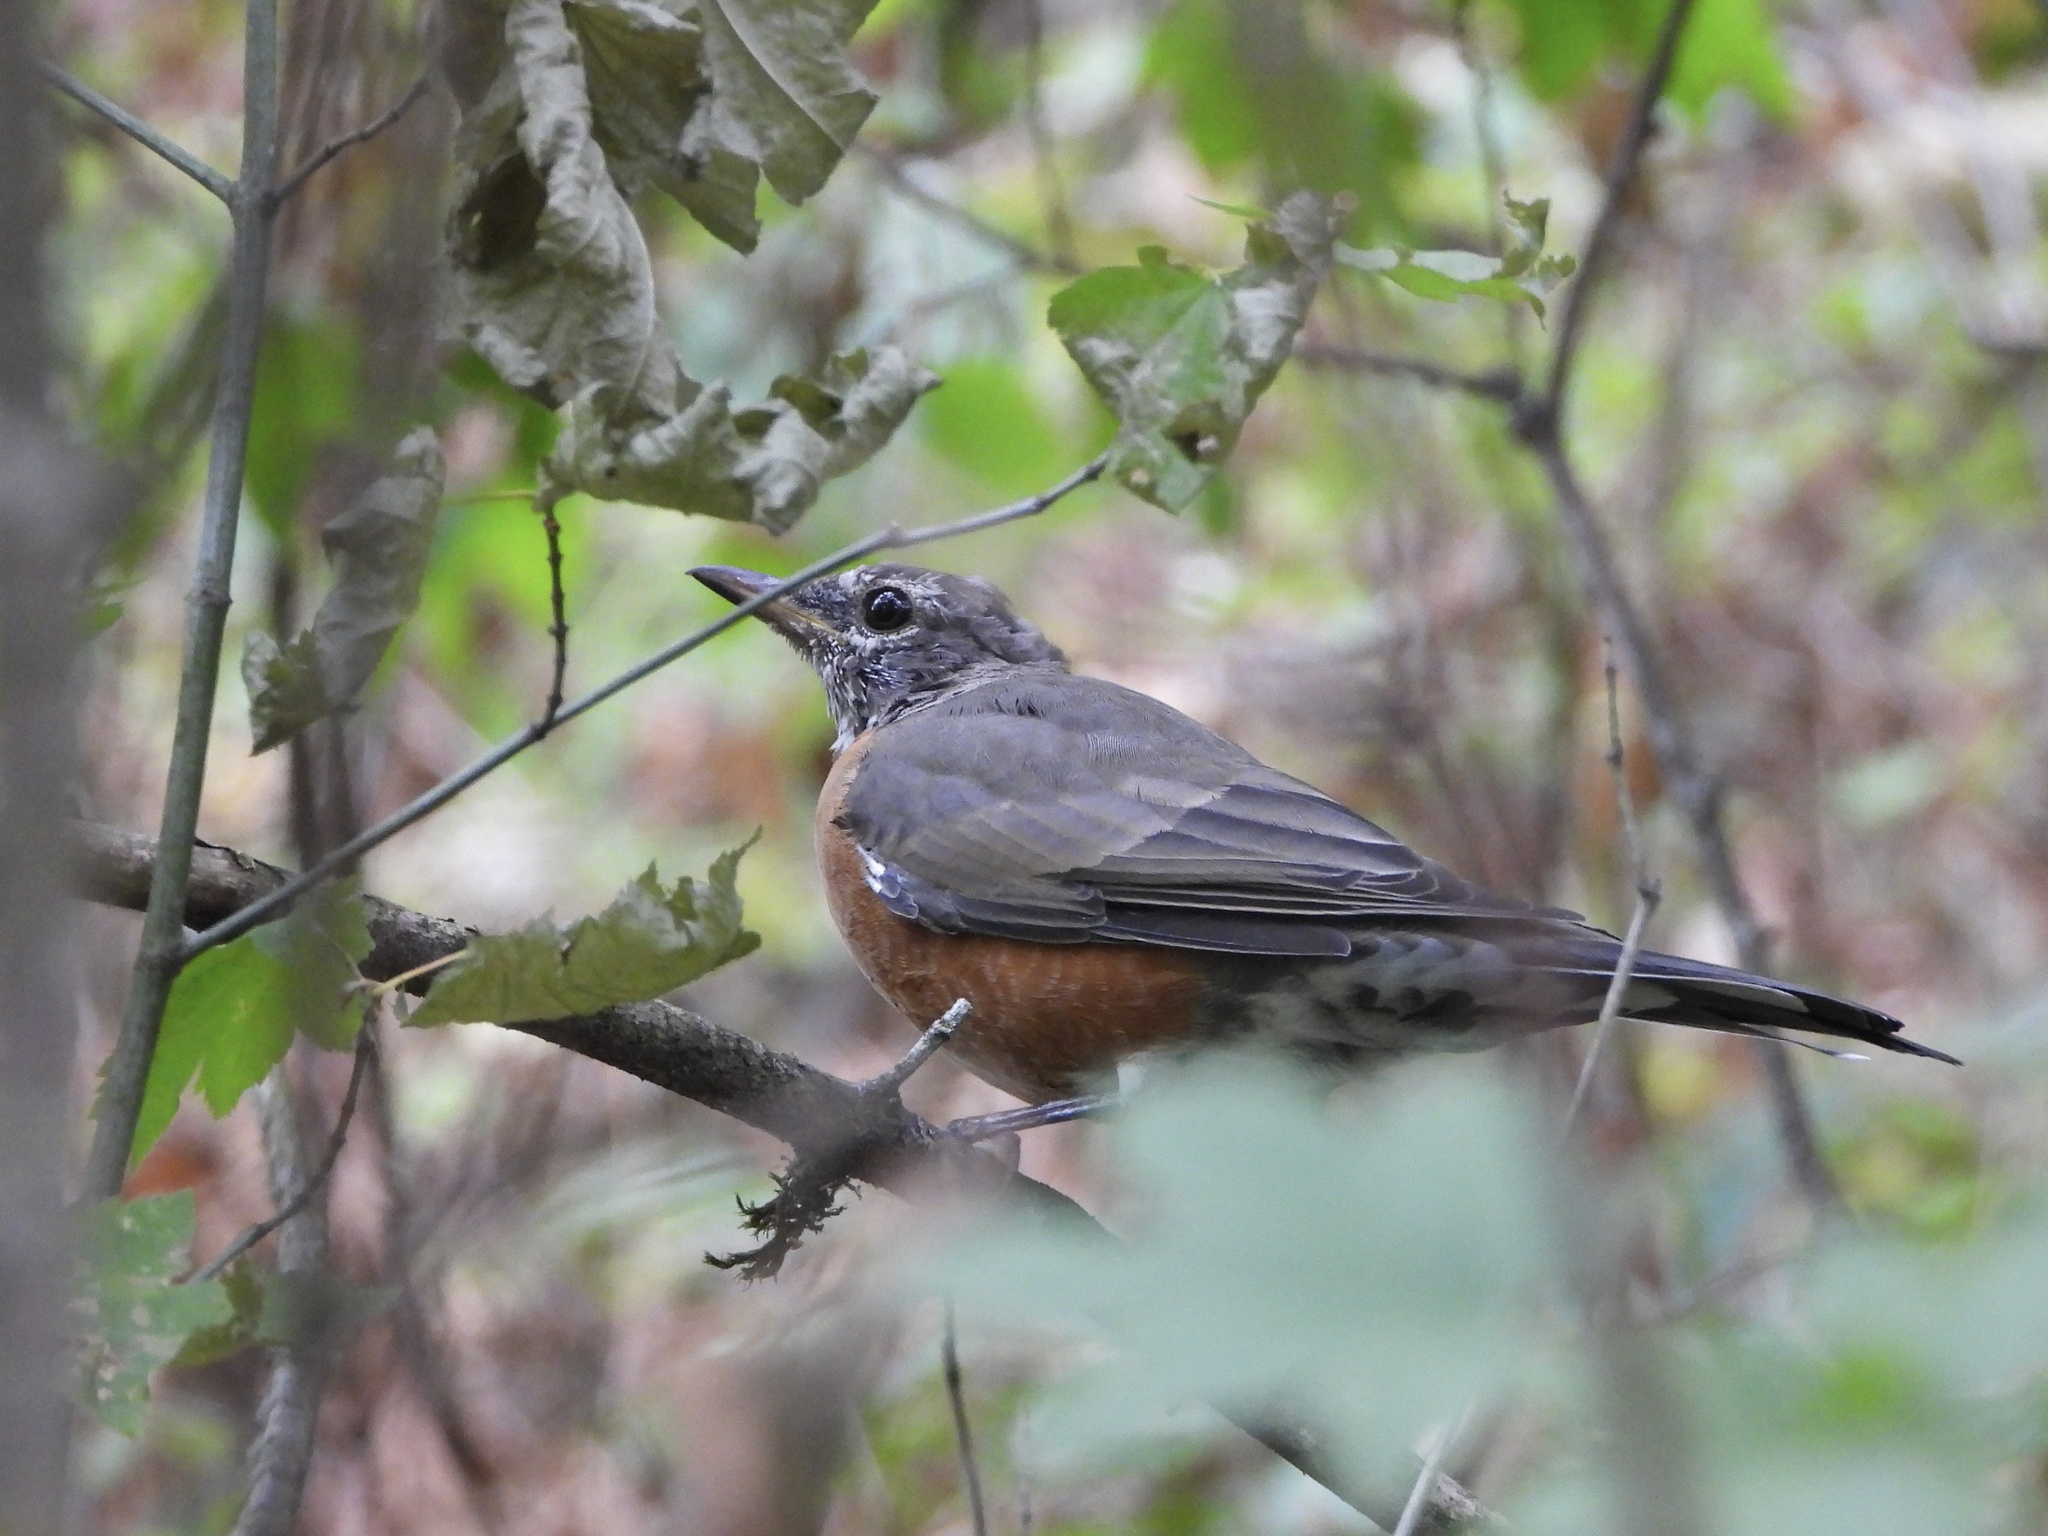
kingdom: Animalia
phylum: Chordata
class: Aves
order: Passeriformes
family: Turdidae
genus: Turdus
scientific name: Turdus migratorius
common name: American robin
